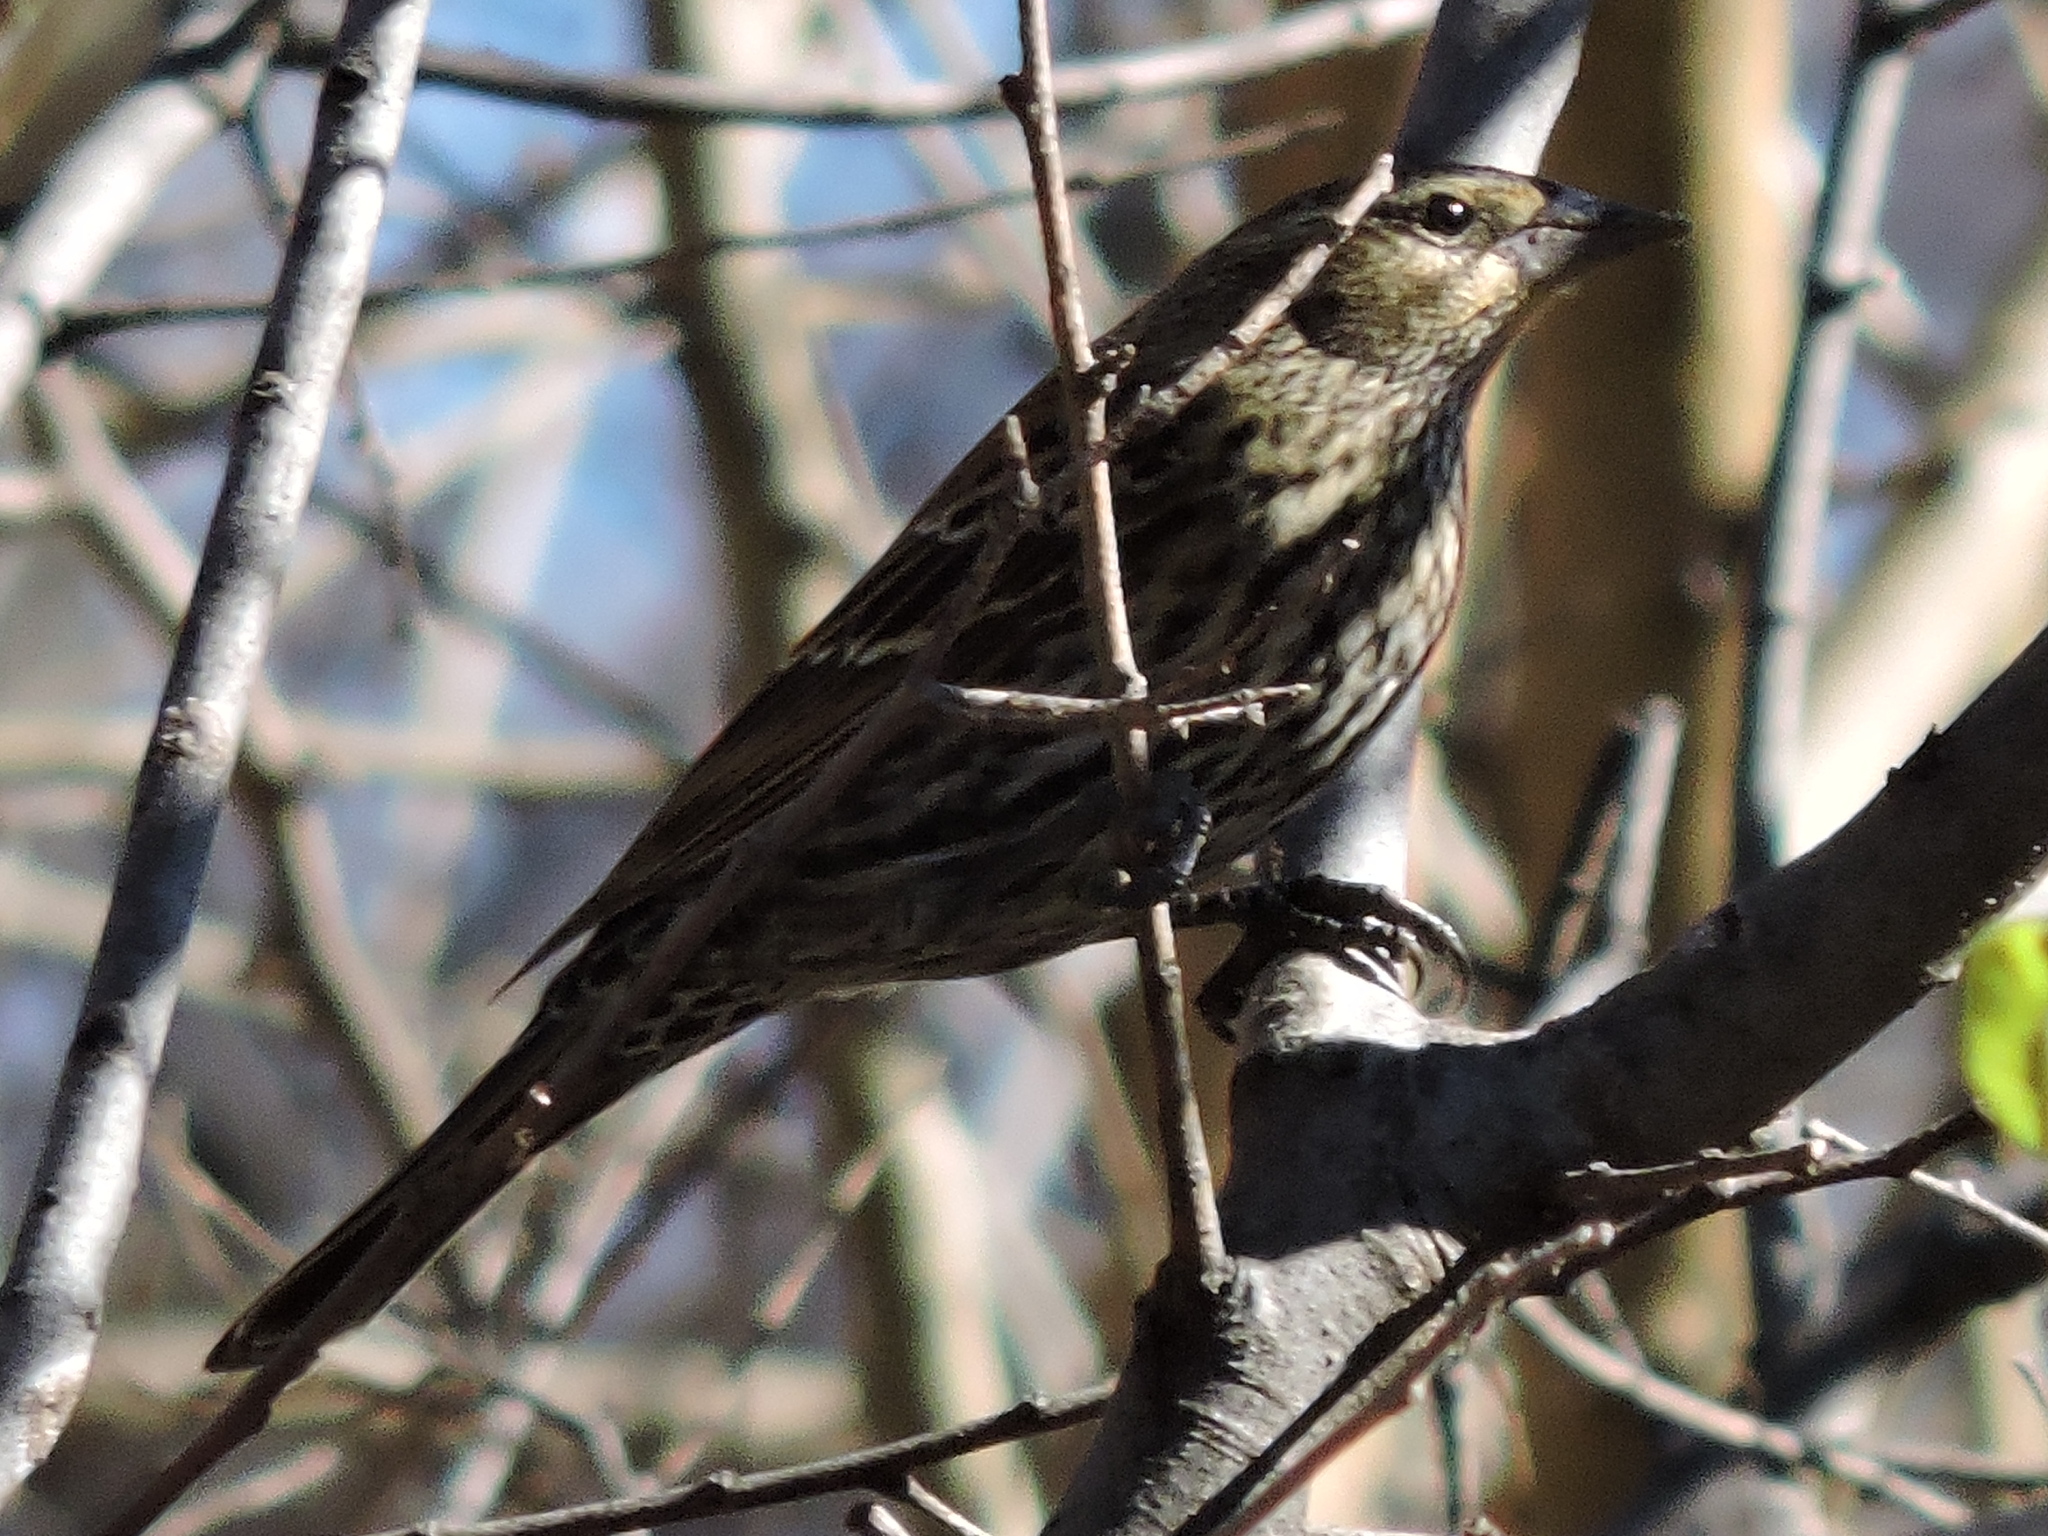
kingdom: Animalia
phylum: Chordata
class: Aves
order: Passeriformes
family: Icteridae
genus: Agelaius
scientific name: Agelaius phoeniceus
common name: Red-winged blackbird
